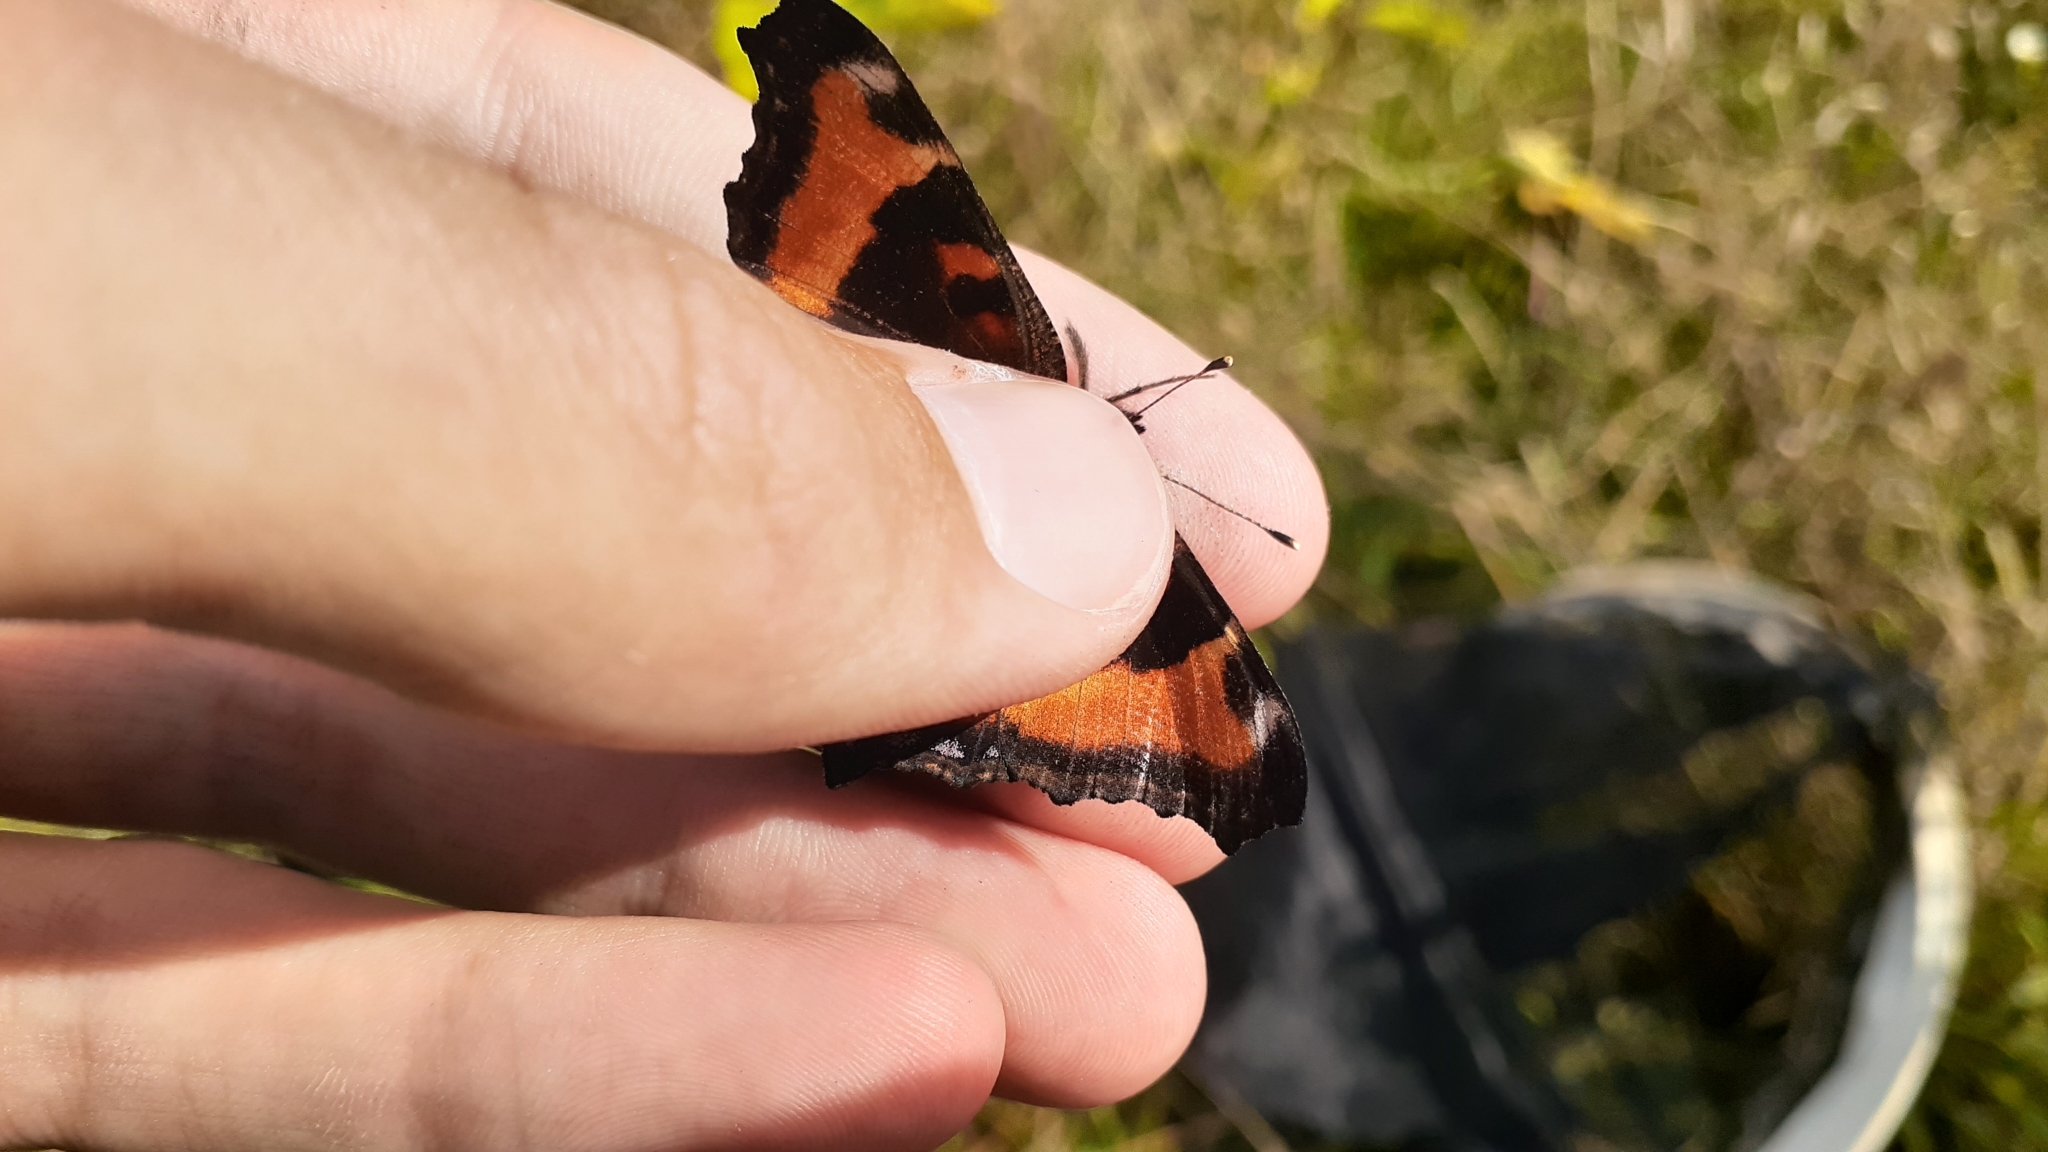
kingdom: Animalia
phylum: Arthropoda
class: Insecta
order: Lepidoptera
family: Nymphalidae
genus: Aglais
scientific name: Aglais milberti
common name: Milbert's tortoiseshell
